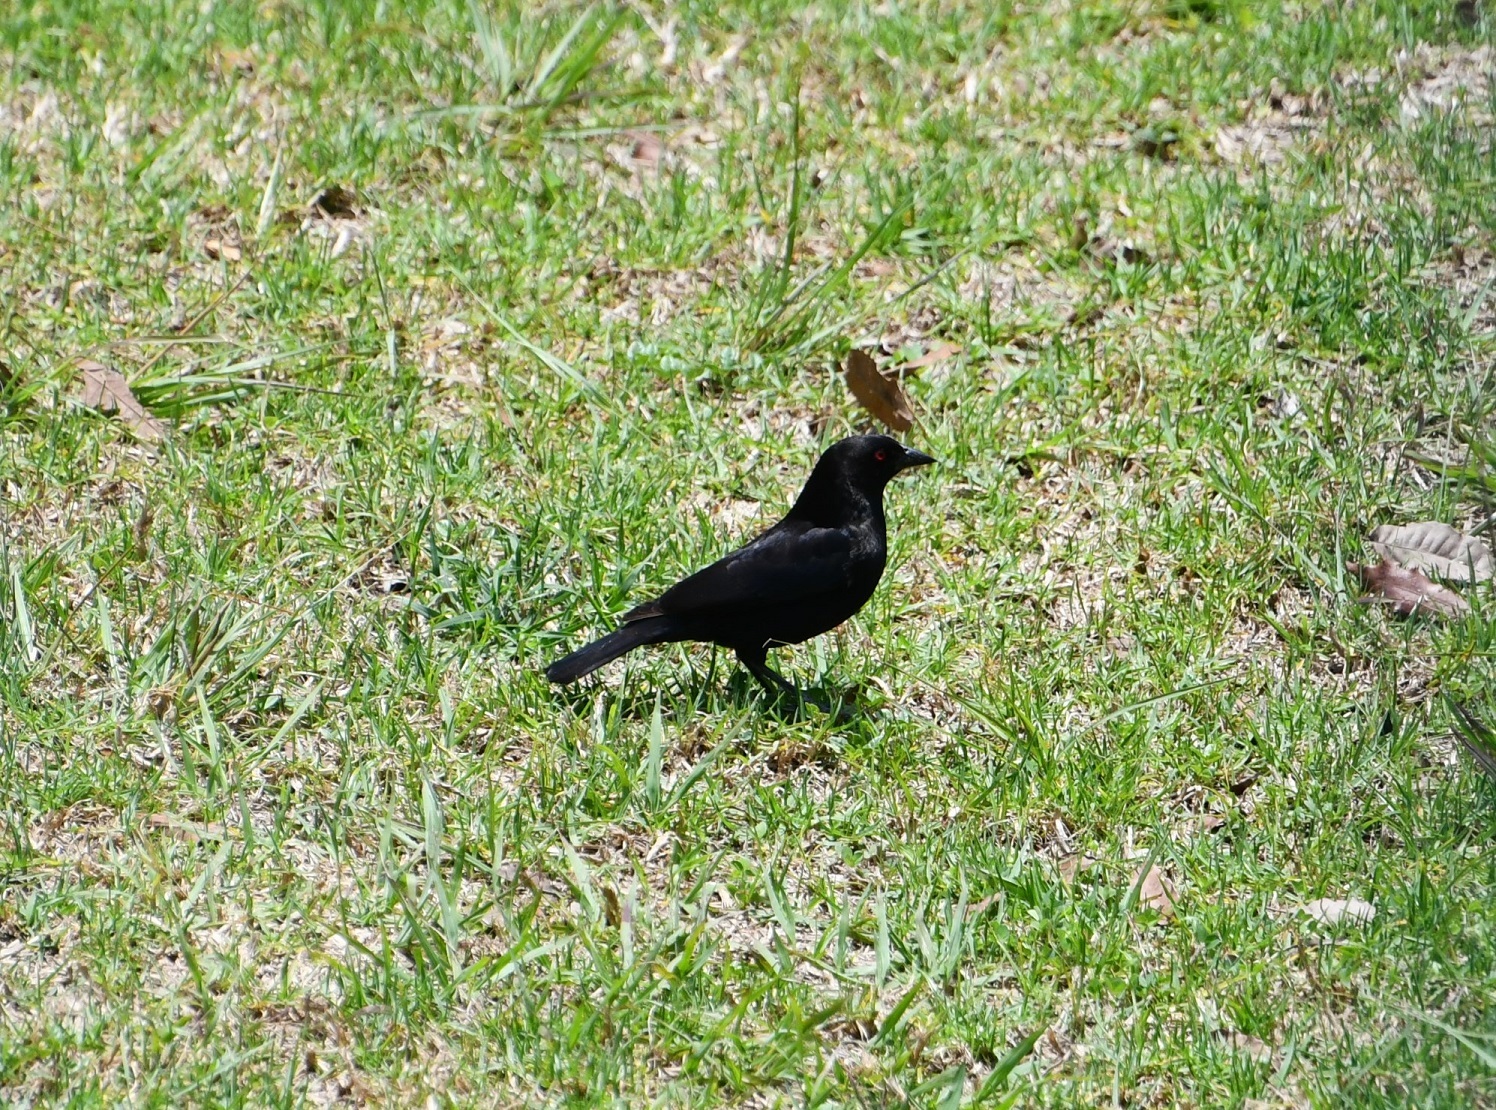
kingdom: Animalia
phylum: Chordata
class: Aves
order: Passeriformes
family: Icteridae
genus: Molothrus
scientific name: Molothrus aeneus
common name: Bronzed cowbird
